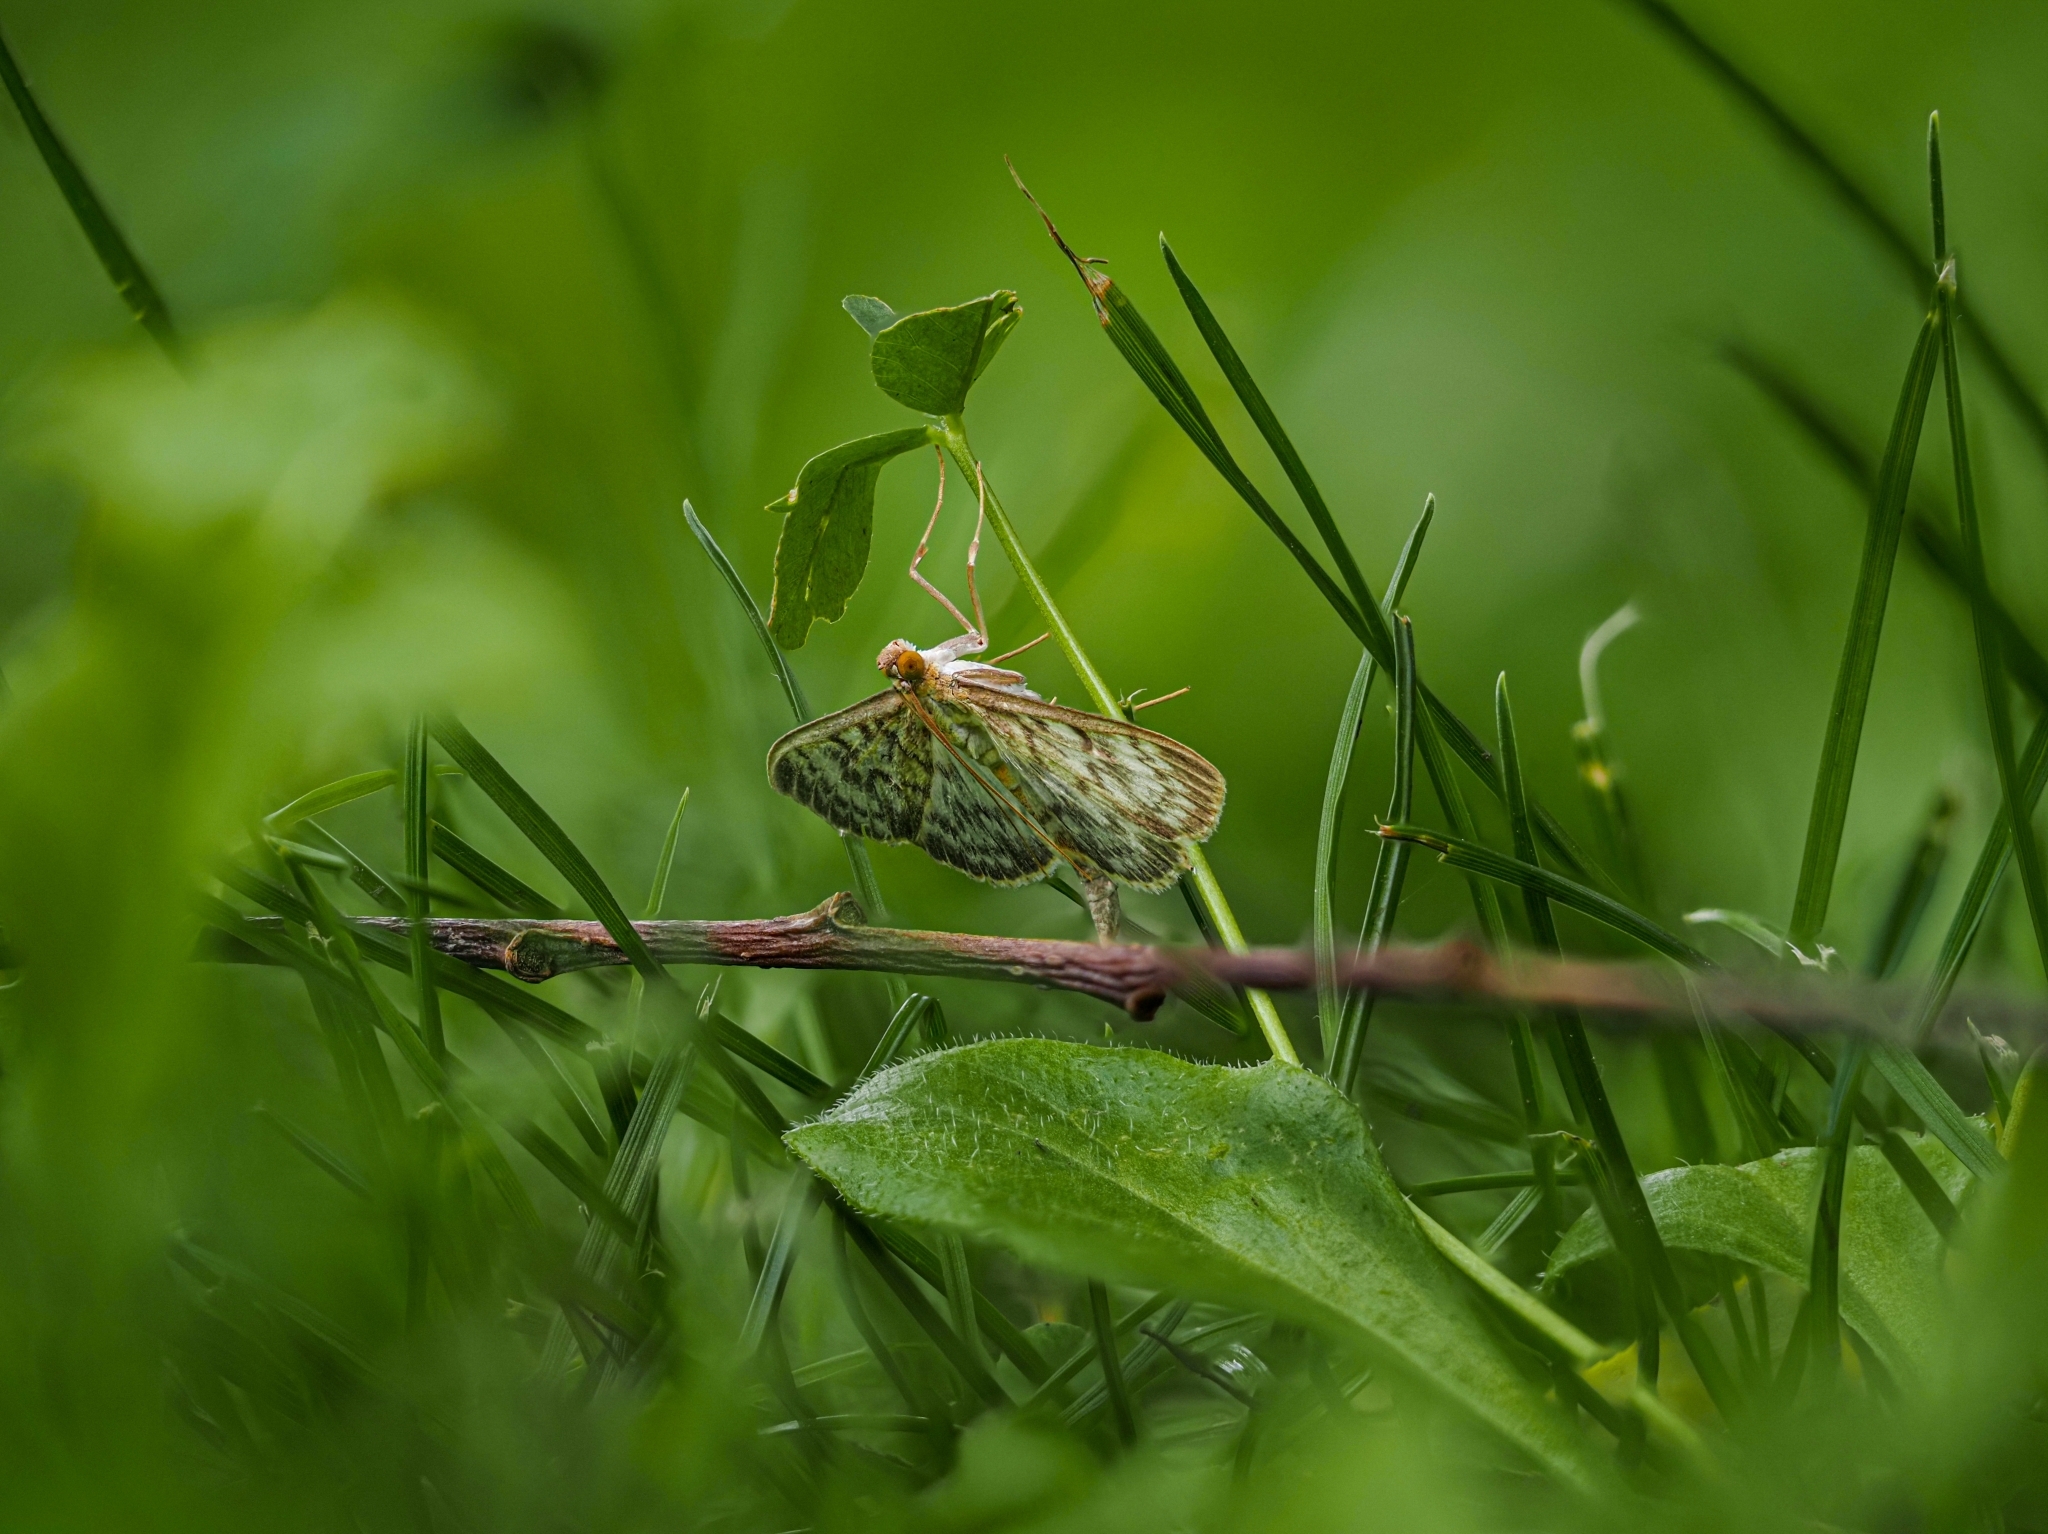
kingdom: Animalia
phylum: Arthropoda
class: Insecta
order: Lepidoptera
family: Crambidae
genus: Patania
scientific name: Patania ruralis
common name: Mother of pearl
